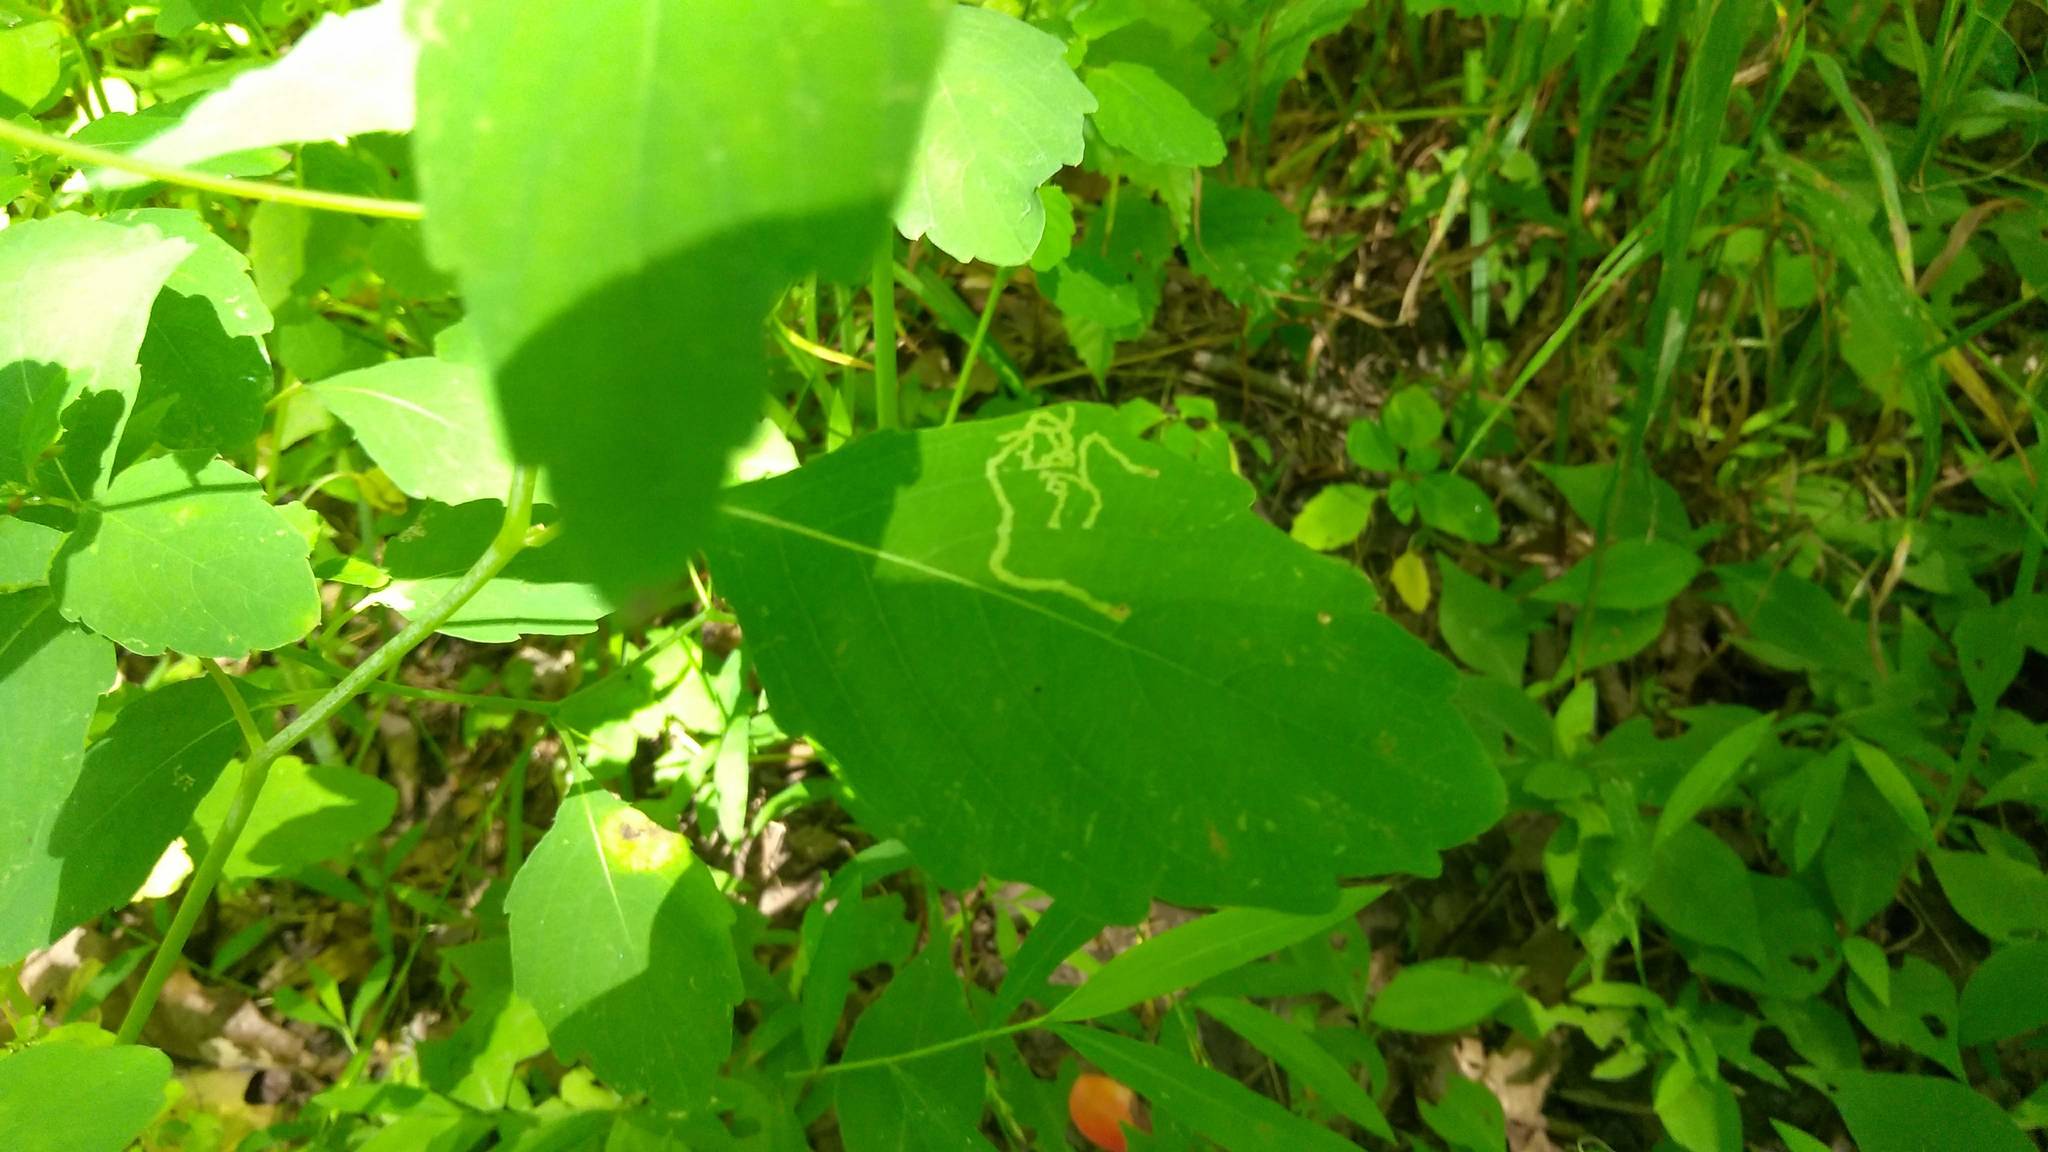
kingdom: Animalia
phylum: Arthropoda
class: Insecta
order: Diptera
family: Agromyzidae
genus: Phytoliriomyza
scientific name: Phytoliriomyza melampyga
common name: Jewelweed leaf-miner fly
